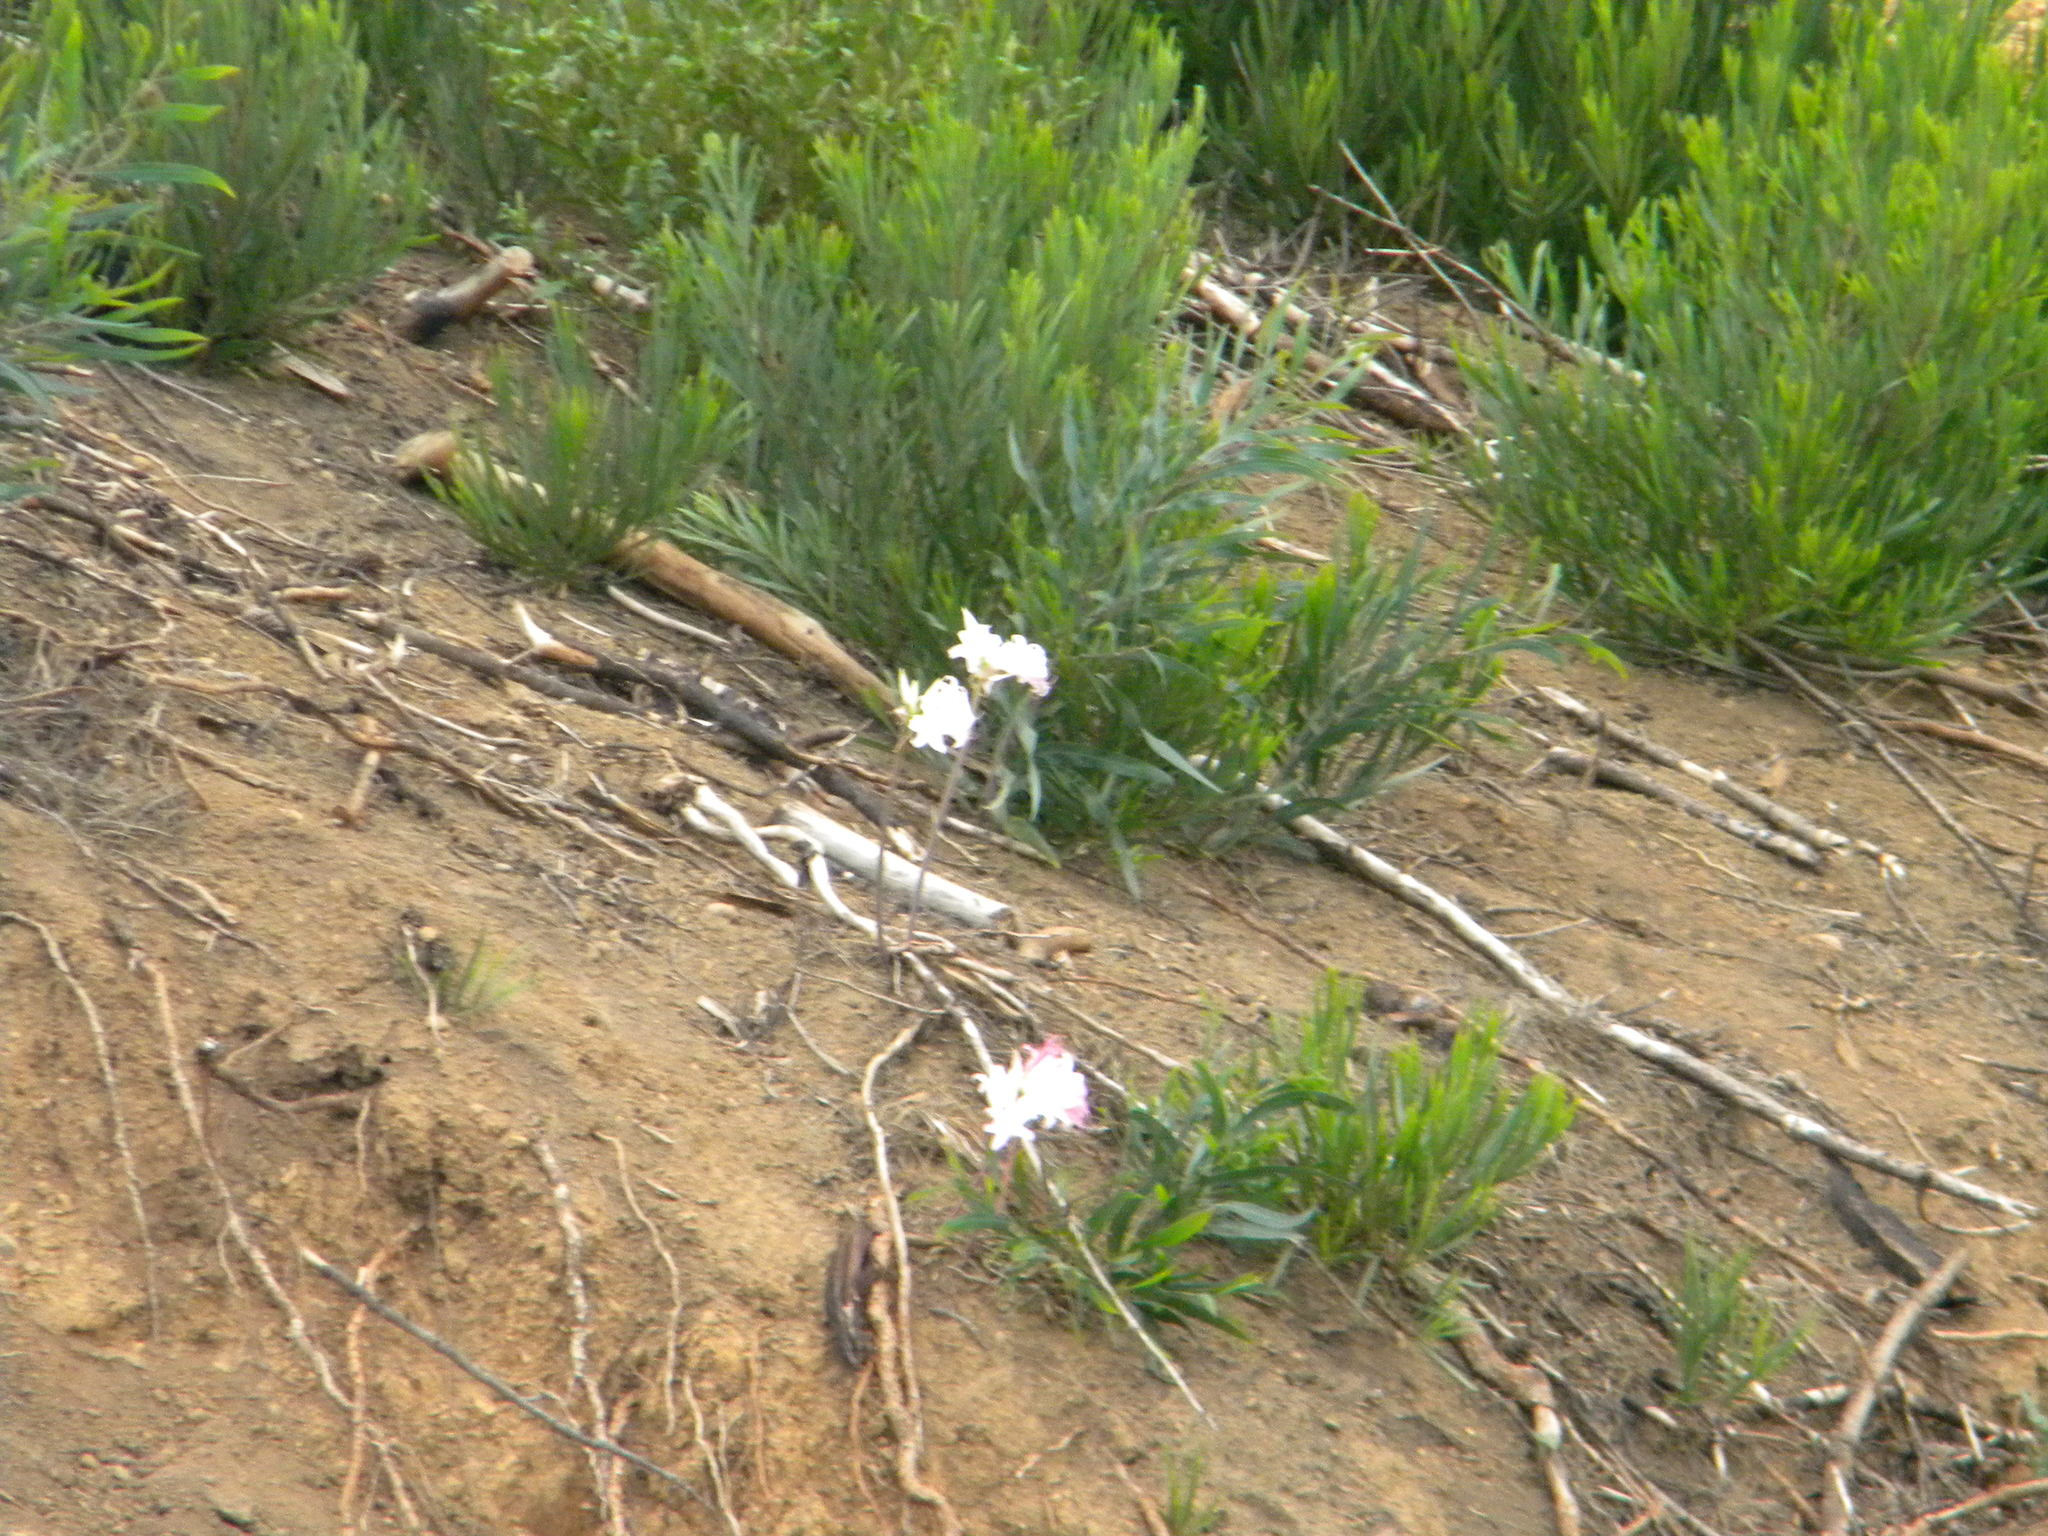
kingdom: Plantae
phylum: Tracheophyta
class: Liliopsida
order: Asparagales
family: Amaryllidaceae
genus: Amaryllis
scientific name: Amaryllis belladonna
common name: Jersey lily
